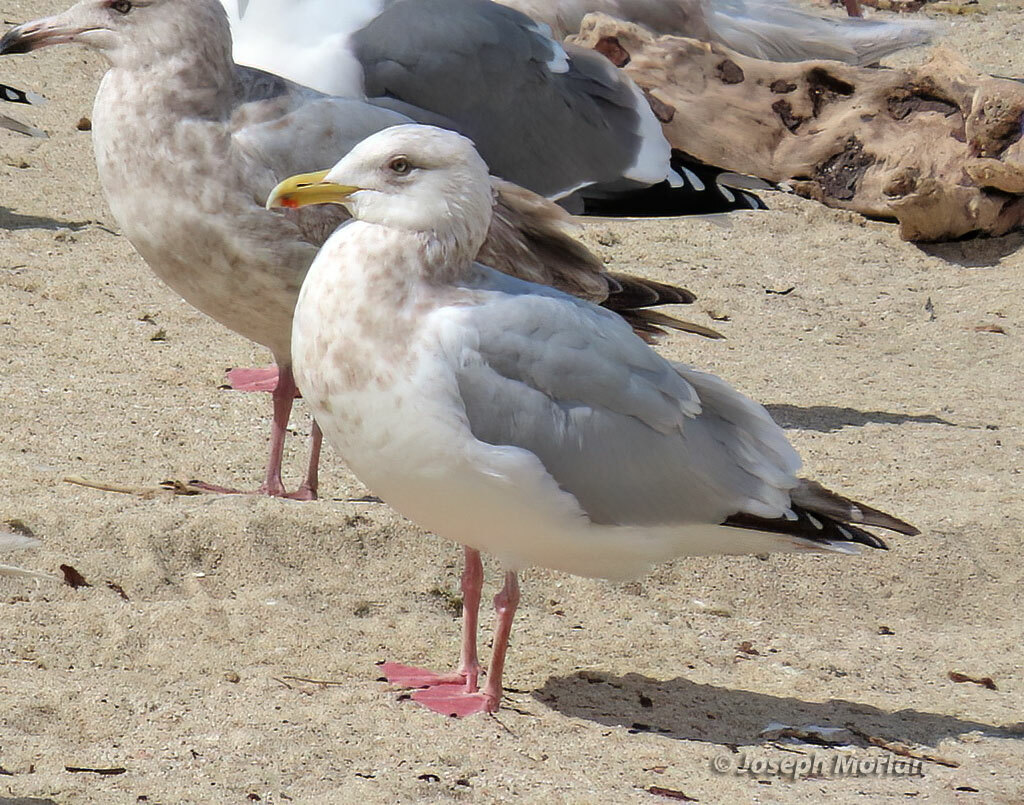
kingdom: Animalia
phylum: Chordata
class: Aves
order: Charadriiformes
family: Laridae
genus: Larus
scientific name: Larus argentatus
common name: Herring gull
